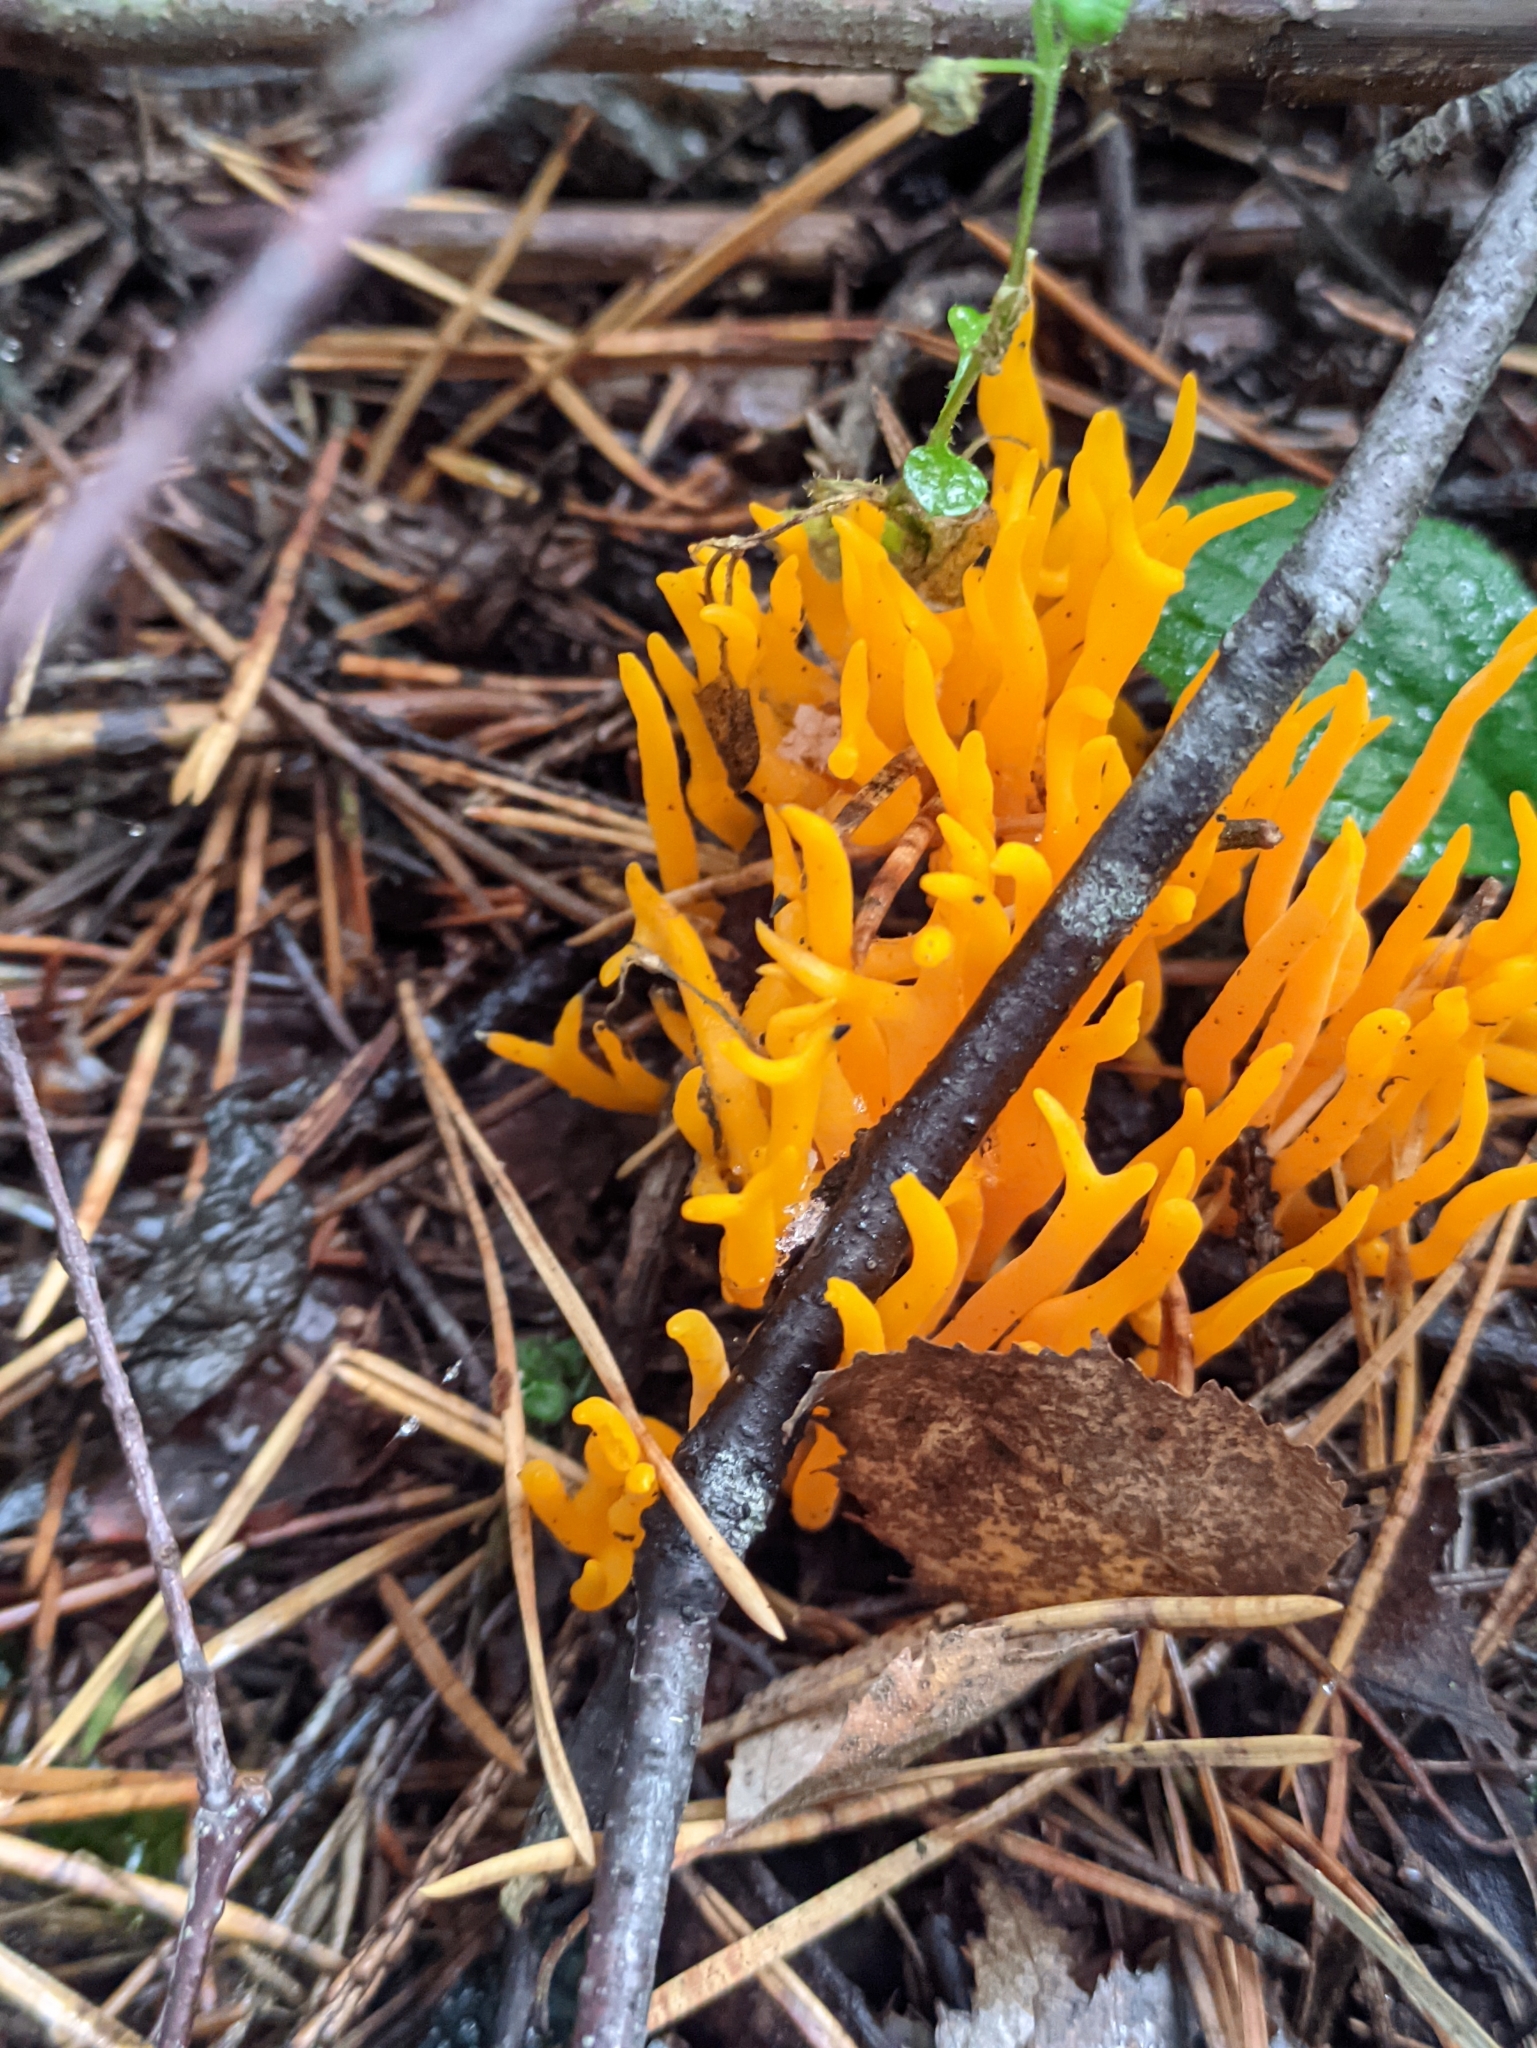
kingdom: Fungi
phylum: Basidiomycota
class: Dacrymycetes
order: Dacrymycetales
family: Dacrymycetaceae
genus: Calocera
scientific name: Calocera viscosa
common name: Yellow stagshorn
